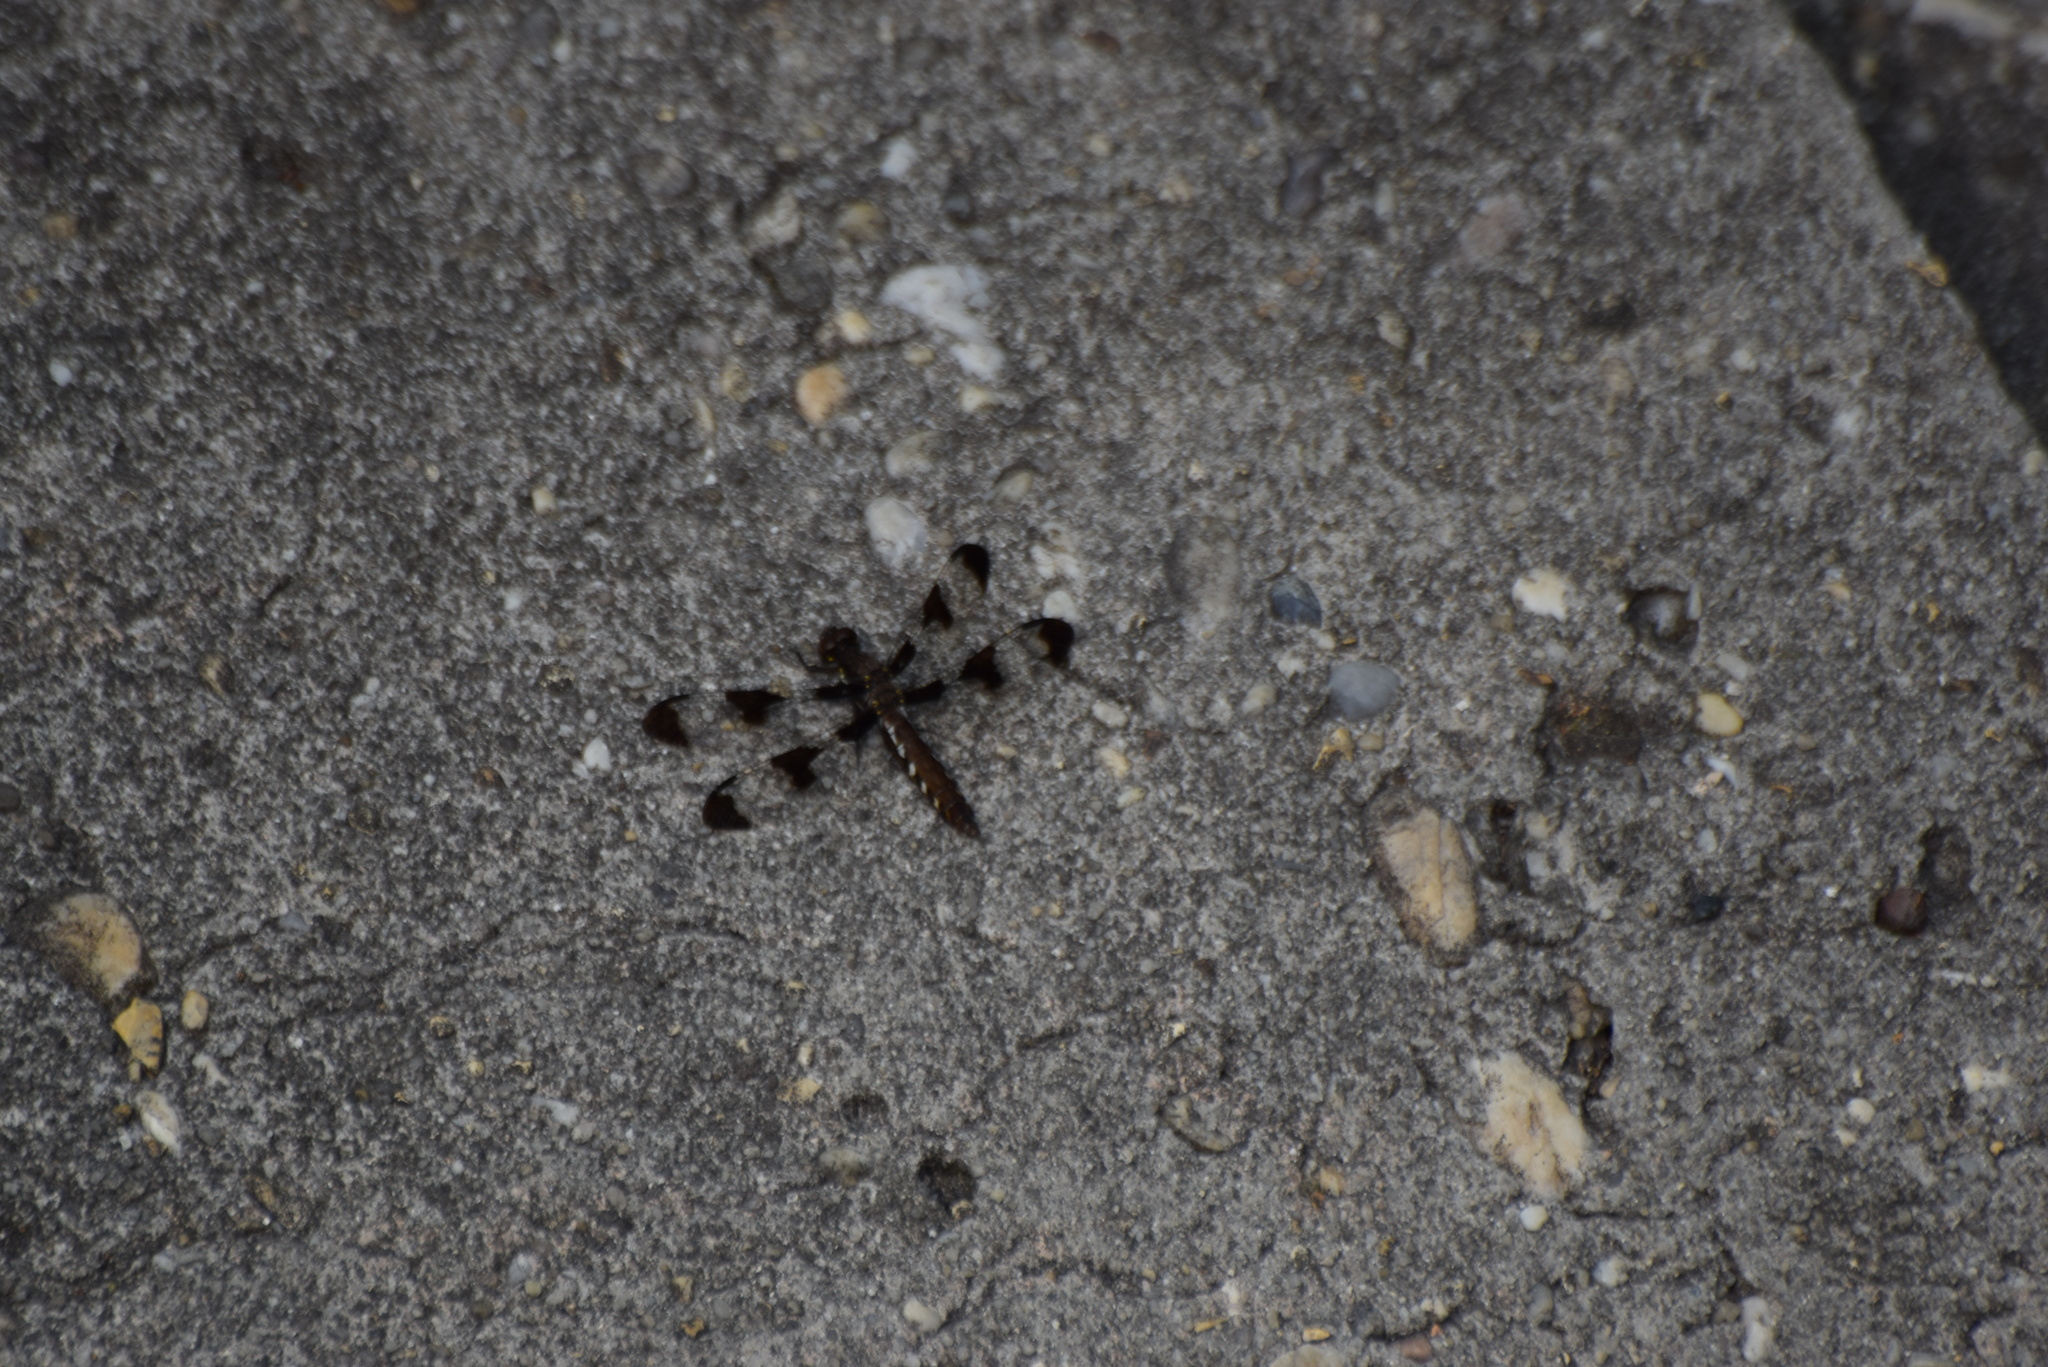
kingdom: Animalia
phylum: Arthropoda
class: Insecta
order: Odonata
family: Libellulidae
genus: Plathemis
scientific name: Plathemis lydia
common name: Common whitetail
